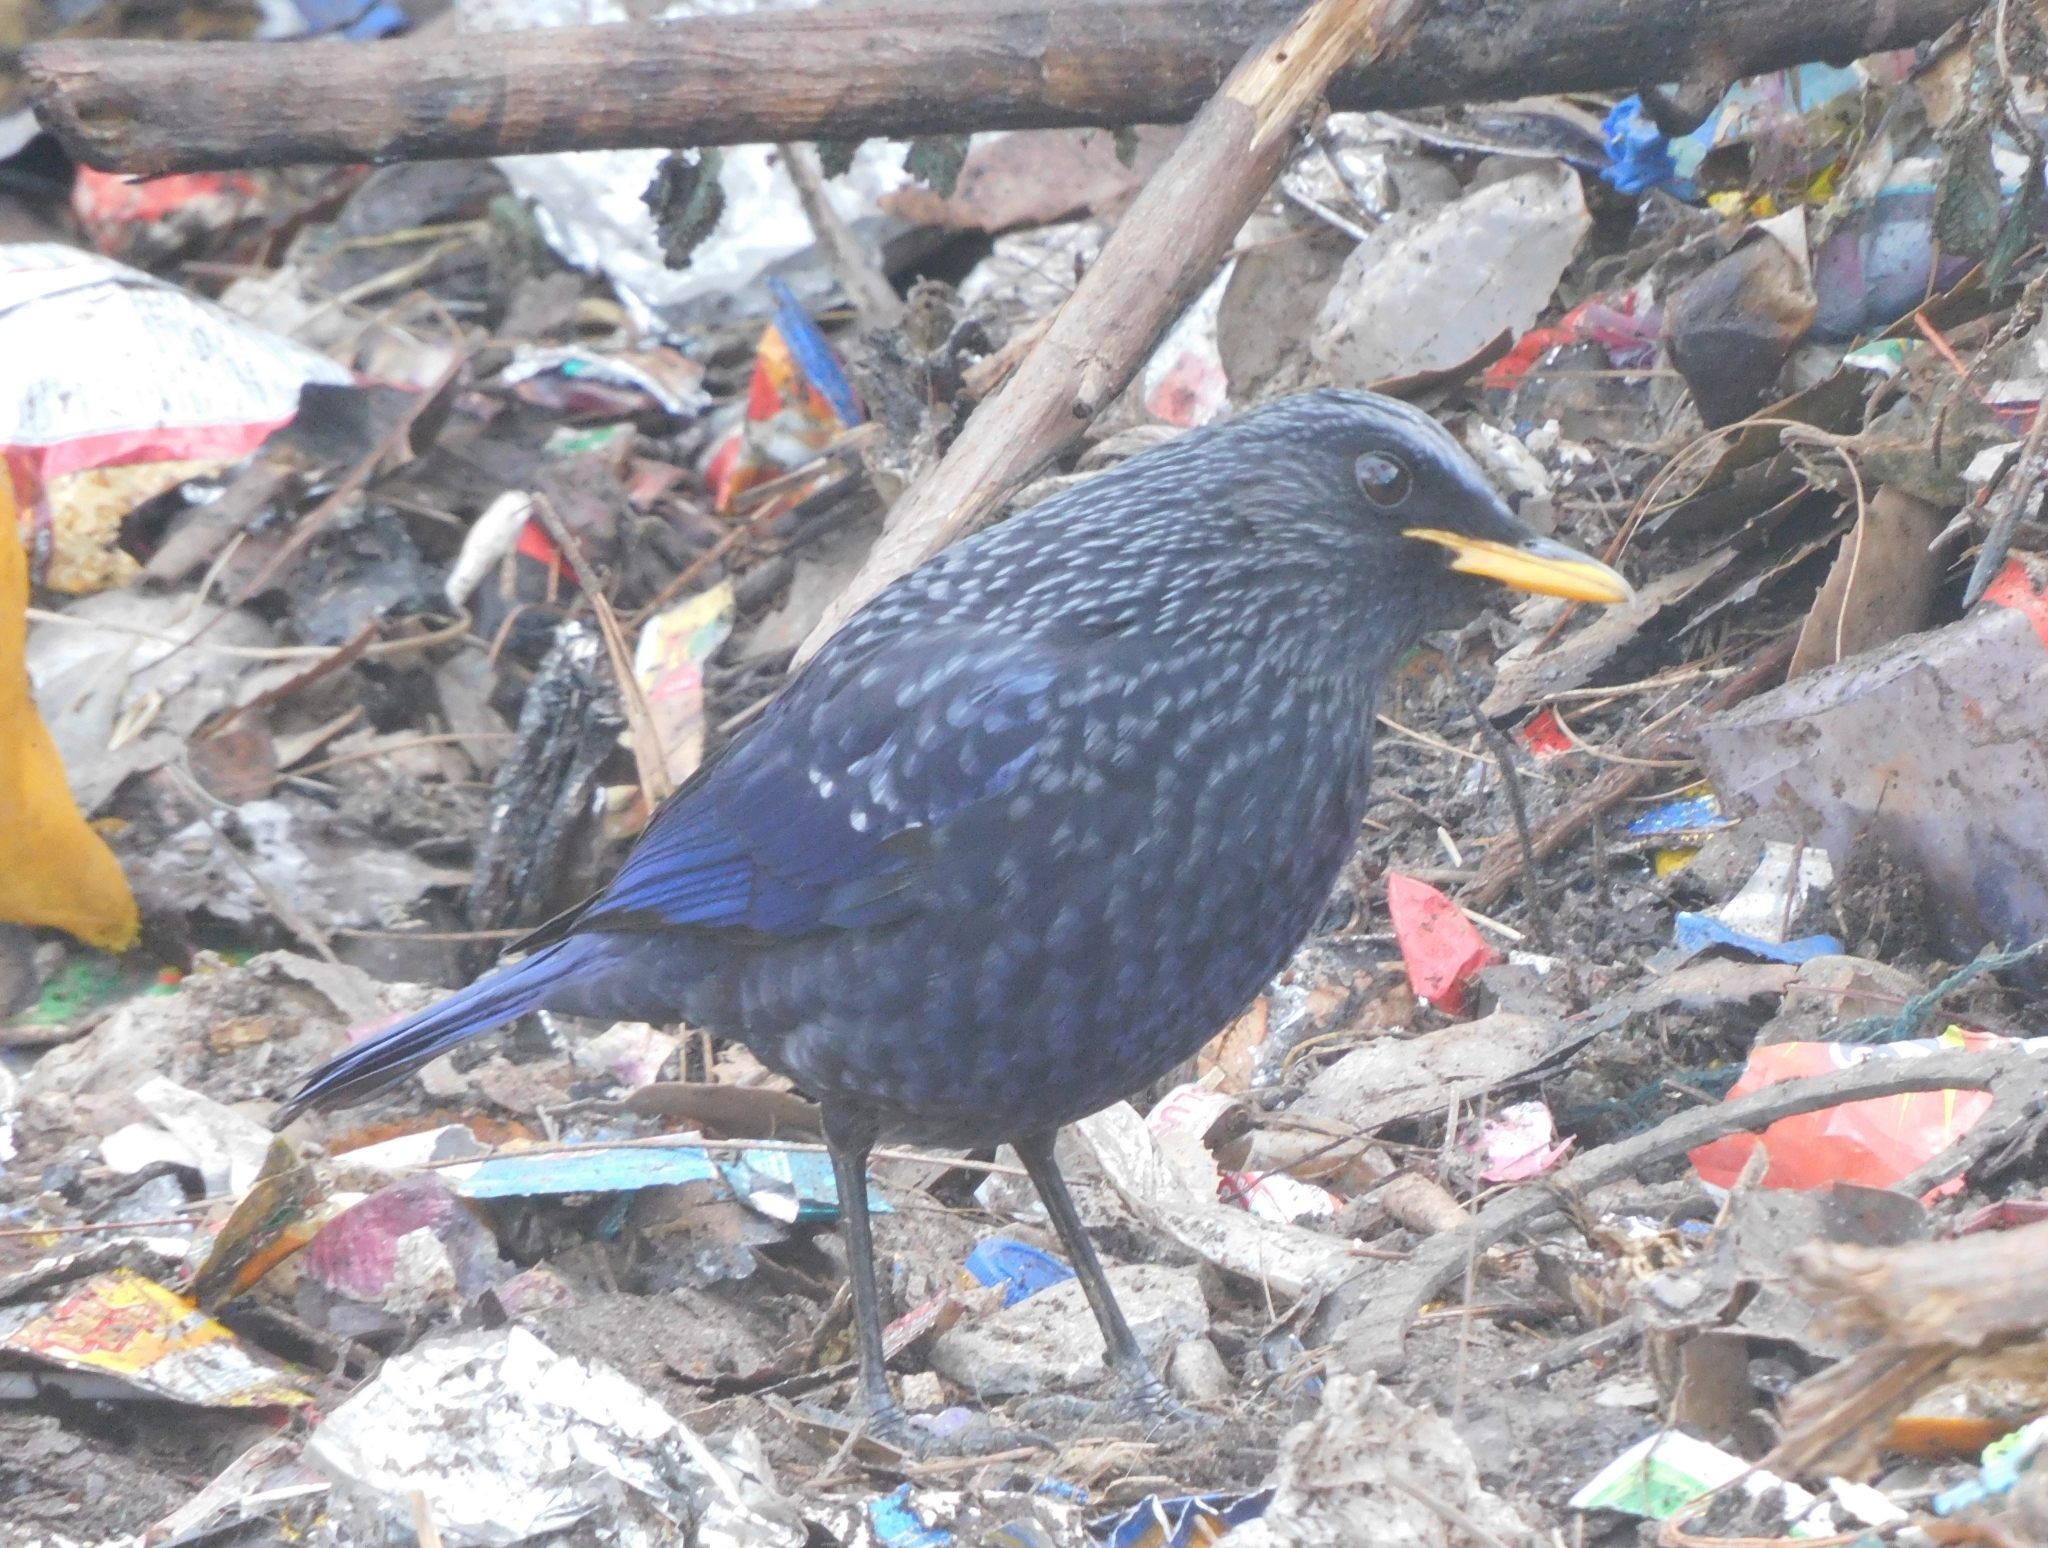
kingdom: Animalia
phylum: Chordata
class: Aves
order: Passeriformes
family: Muscicapidae
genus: Myophonus
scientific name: Myophonus caeruleus
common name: Blue whistling-thrush
